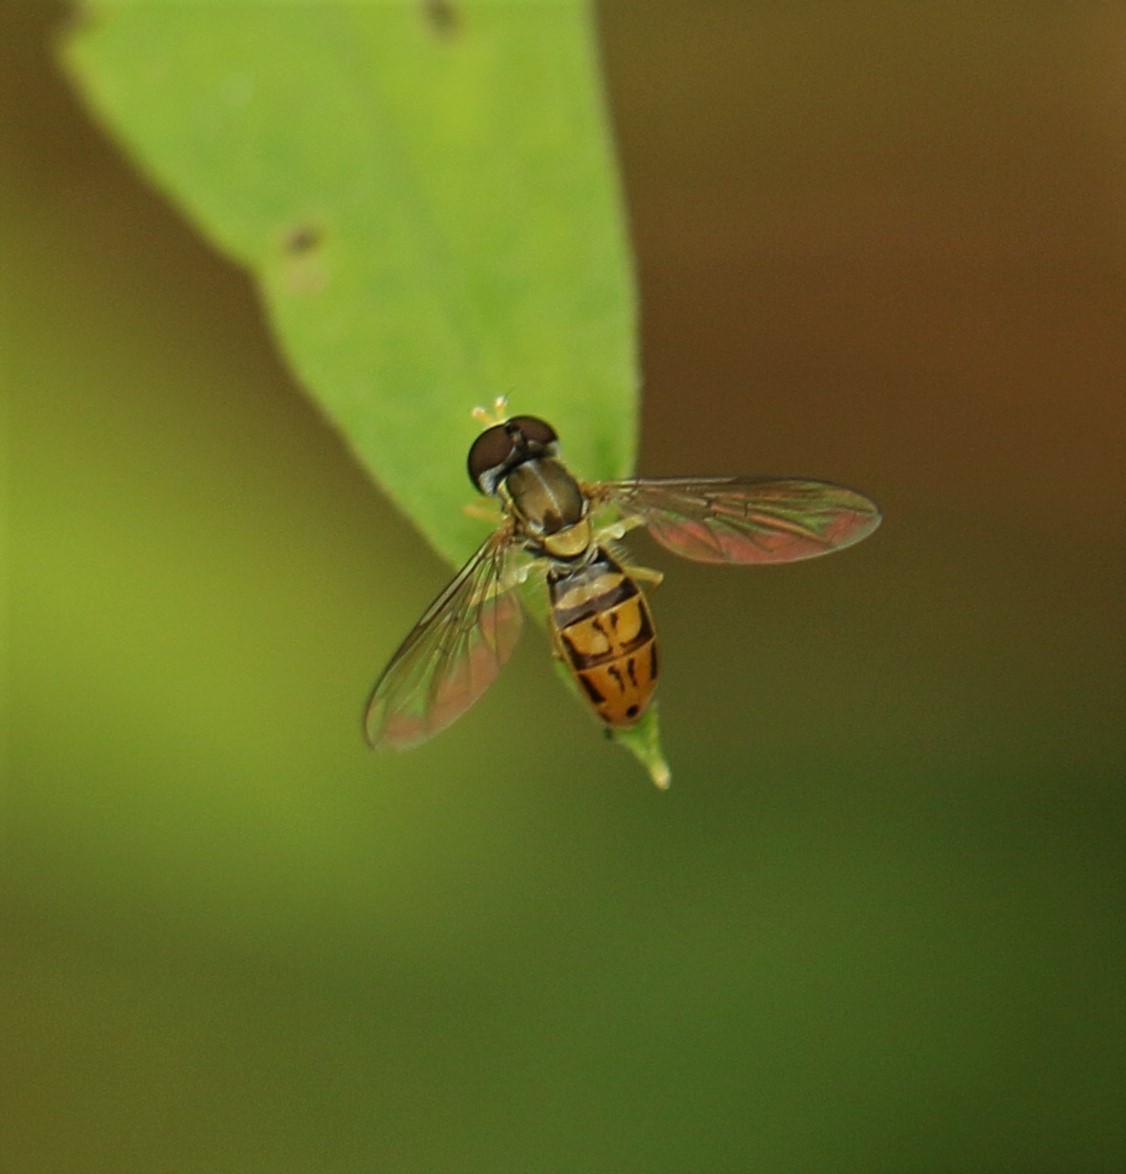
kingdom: Animalia
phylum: Arthropoda
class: Insecta
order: Diptera
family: Syrphidae
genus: Toxomerus
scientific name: Toxomerus marginatus
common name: Syrphid fly
